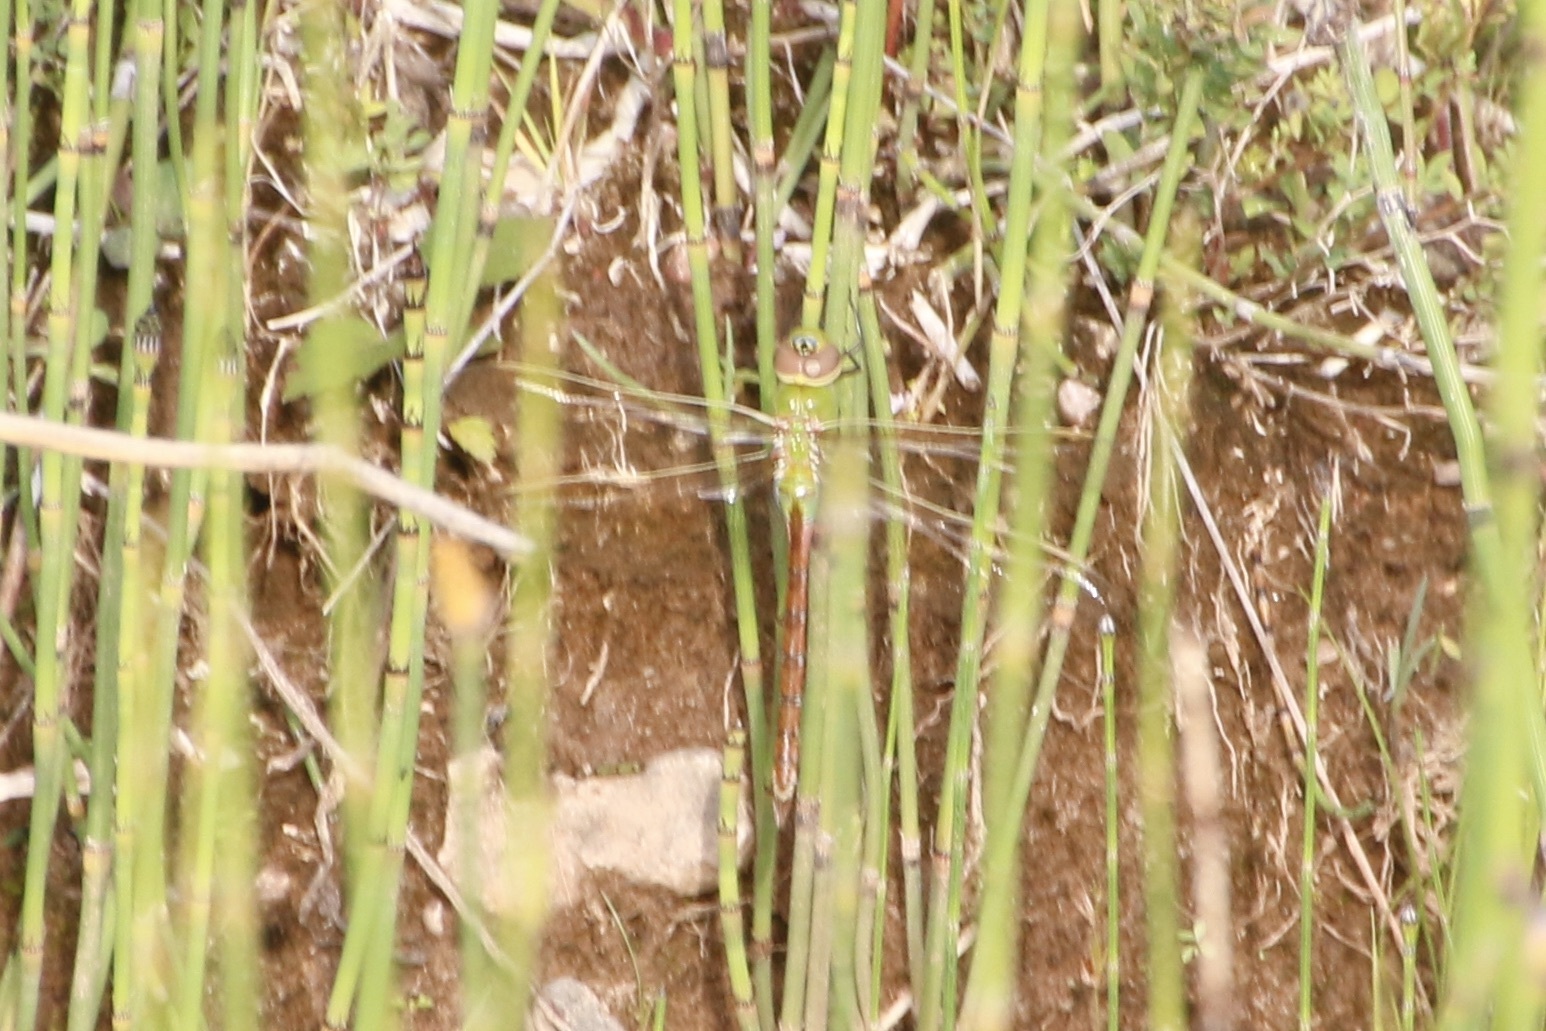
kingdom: Animalia
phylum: Arthropoda
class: Insecta
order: Odonata
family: Aeshnidae
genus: Anax
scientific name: Anax junius
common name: Common green darner
